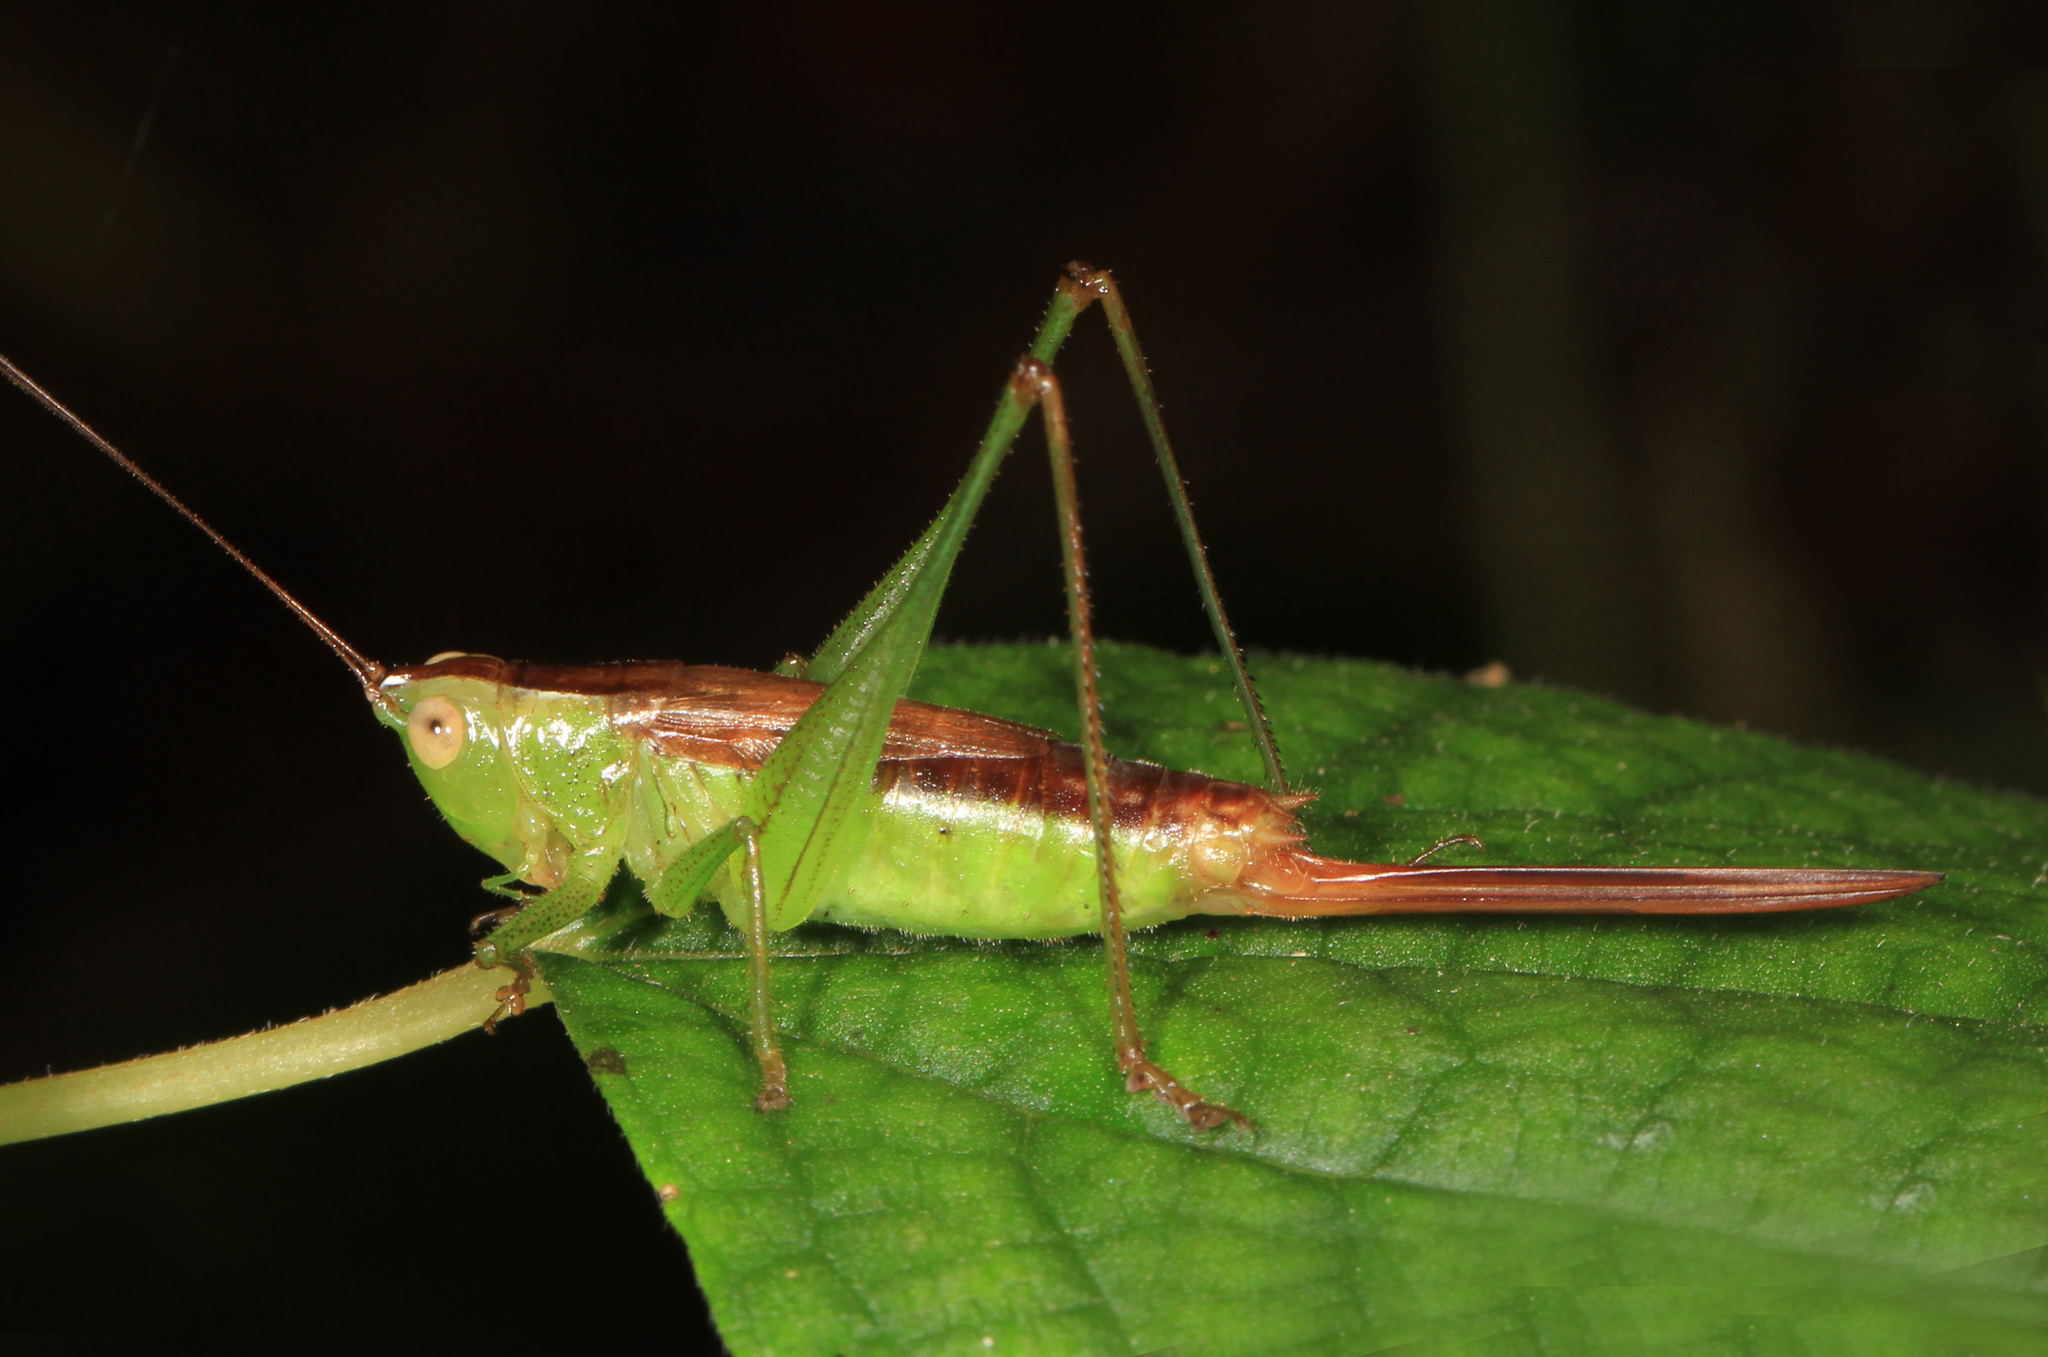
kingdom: Animalia
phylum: Arthropoda
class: Insecta
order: Orthoptera
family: Tettigoniidae
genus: Conocephalus
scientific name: Conocephalus brevipennis
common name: Short-winged meadow katydid
